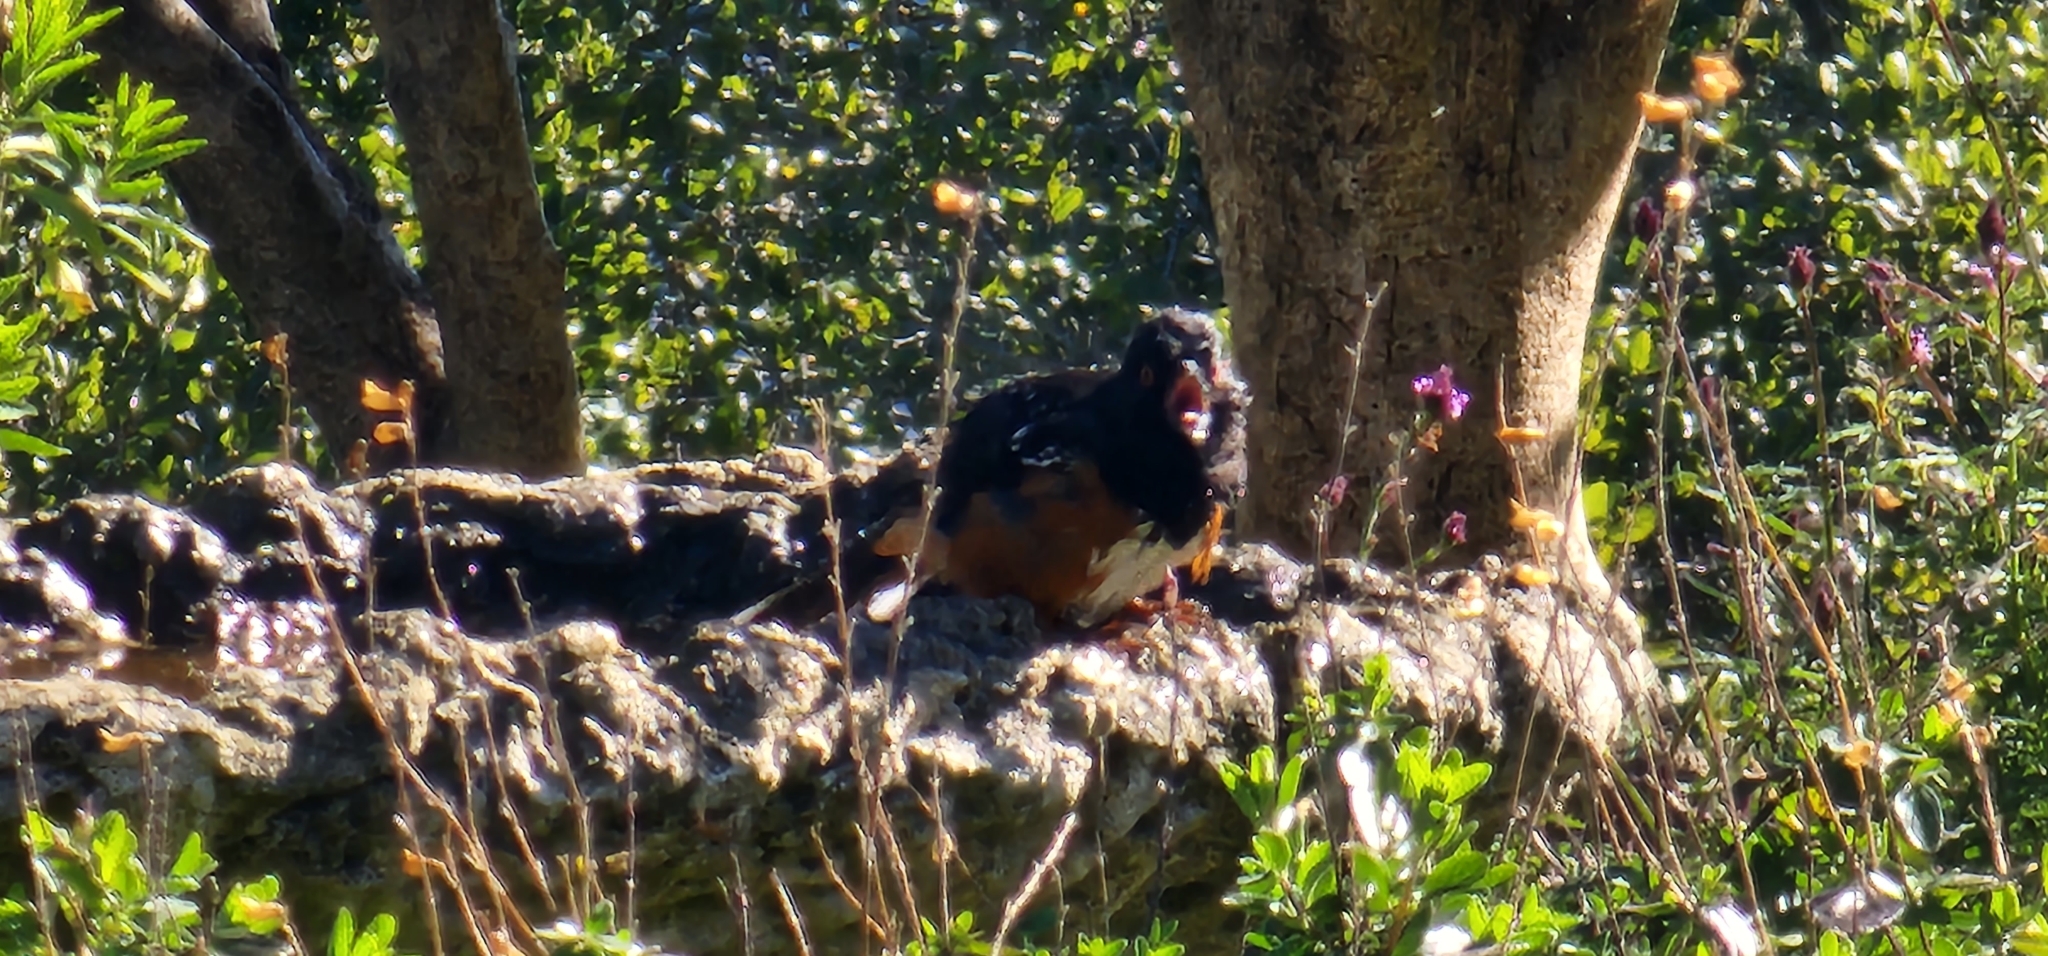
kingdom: Animalia
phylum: Chordata
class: Aves
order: Passeriformes
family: Passerellidae
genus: Pipilo
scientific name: Pipilo maculatus
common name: Spotted towhee
